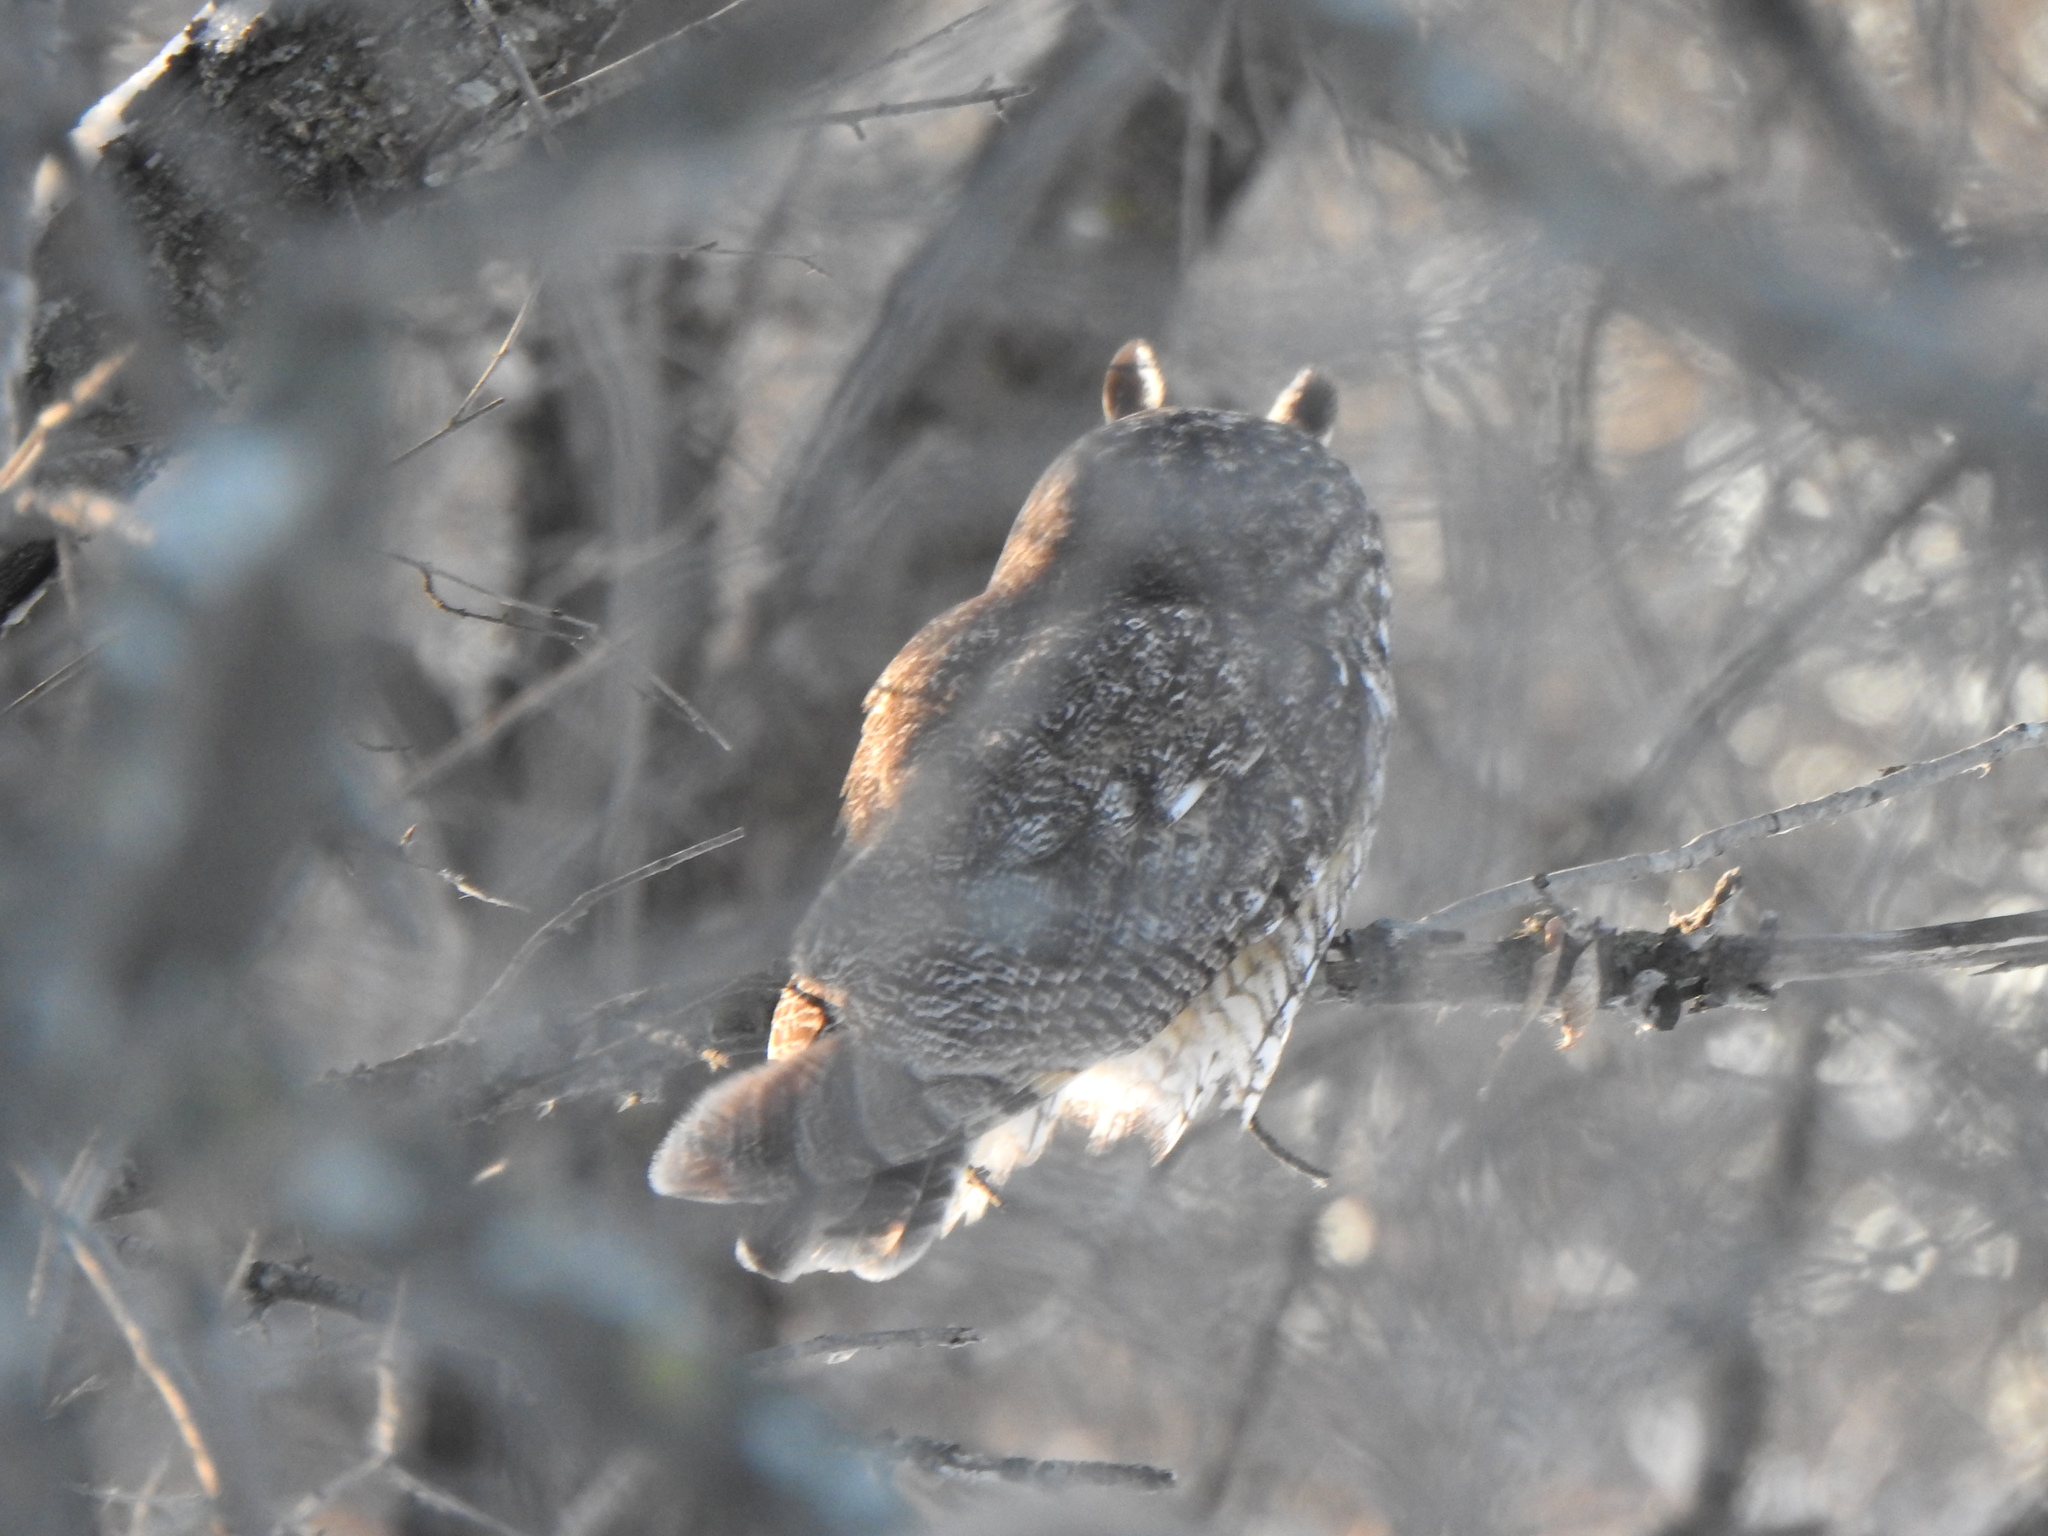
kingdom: Animalia
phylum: Chordata
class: Aves
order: Strigiformes
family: Strigidae
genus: Asio
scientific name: Asio otus
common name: Long-eared owl
